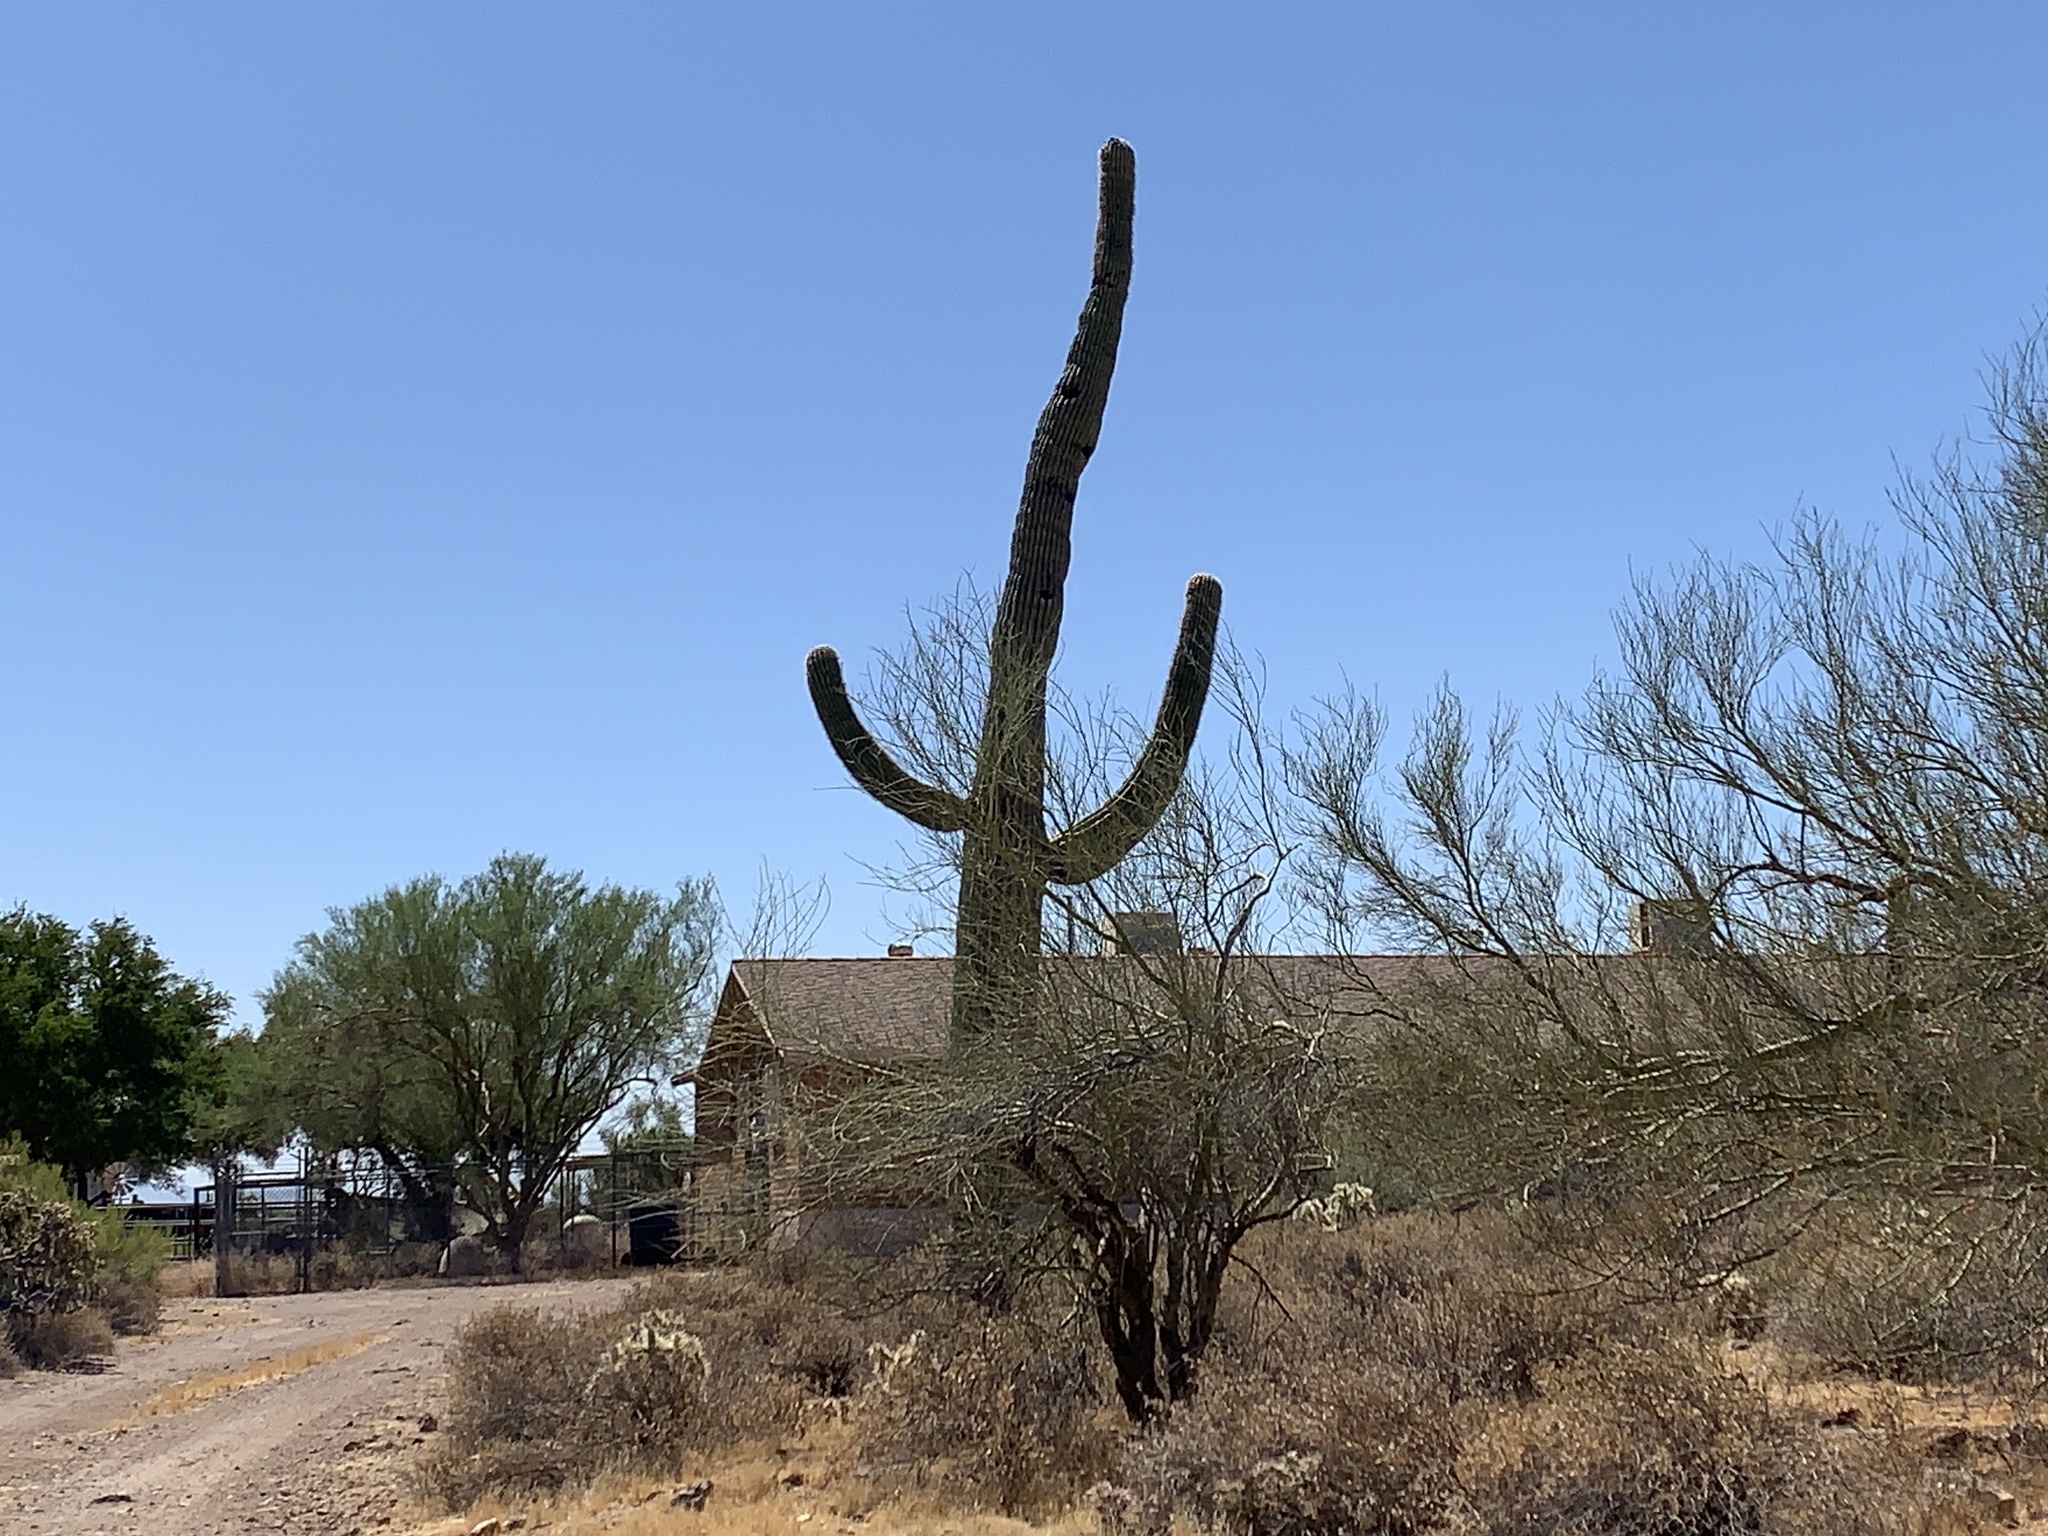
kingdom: Plantae
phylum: Tracheophyta
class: Magnoliopsida
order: Caryophyllales
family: Cactaceae
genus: Carnegiea
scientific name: Carnegiea gigantea
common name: Saguaro
